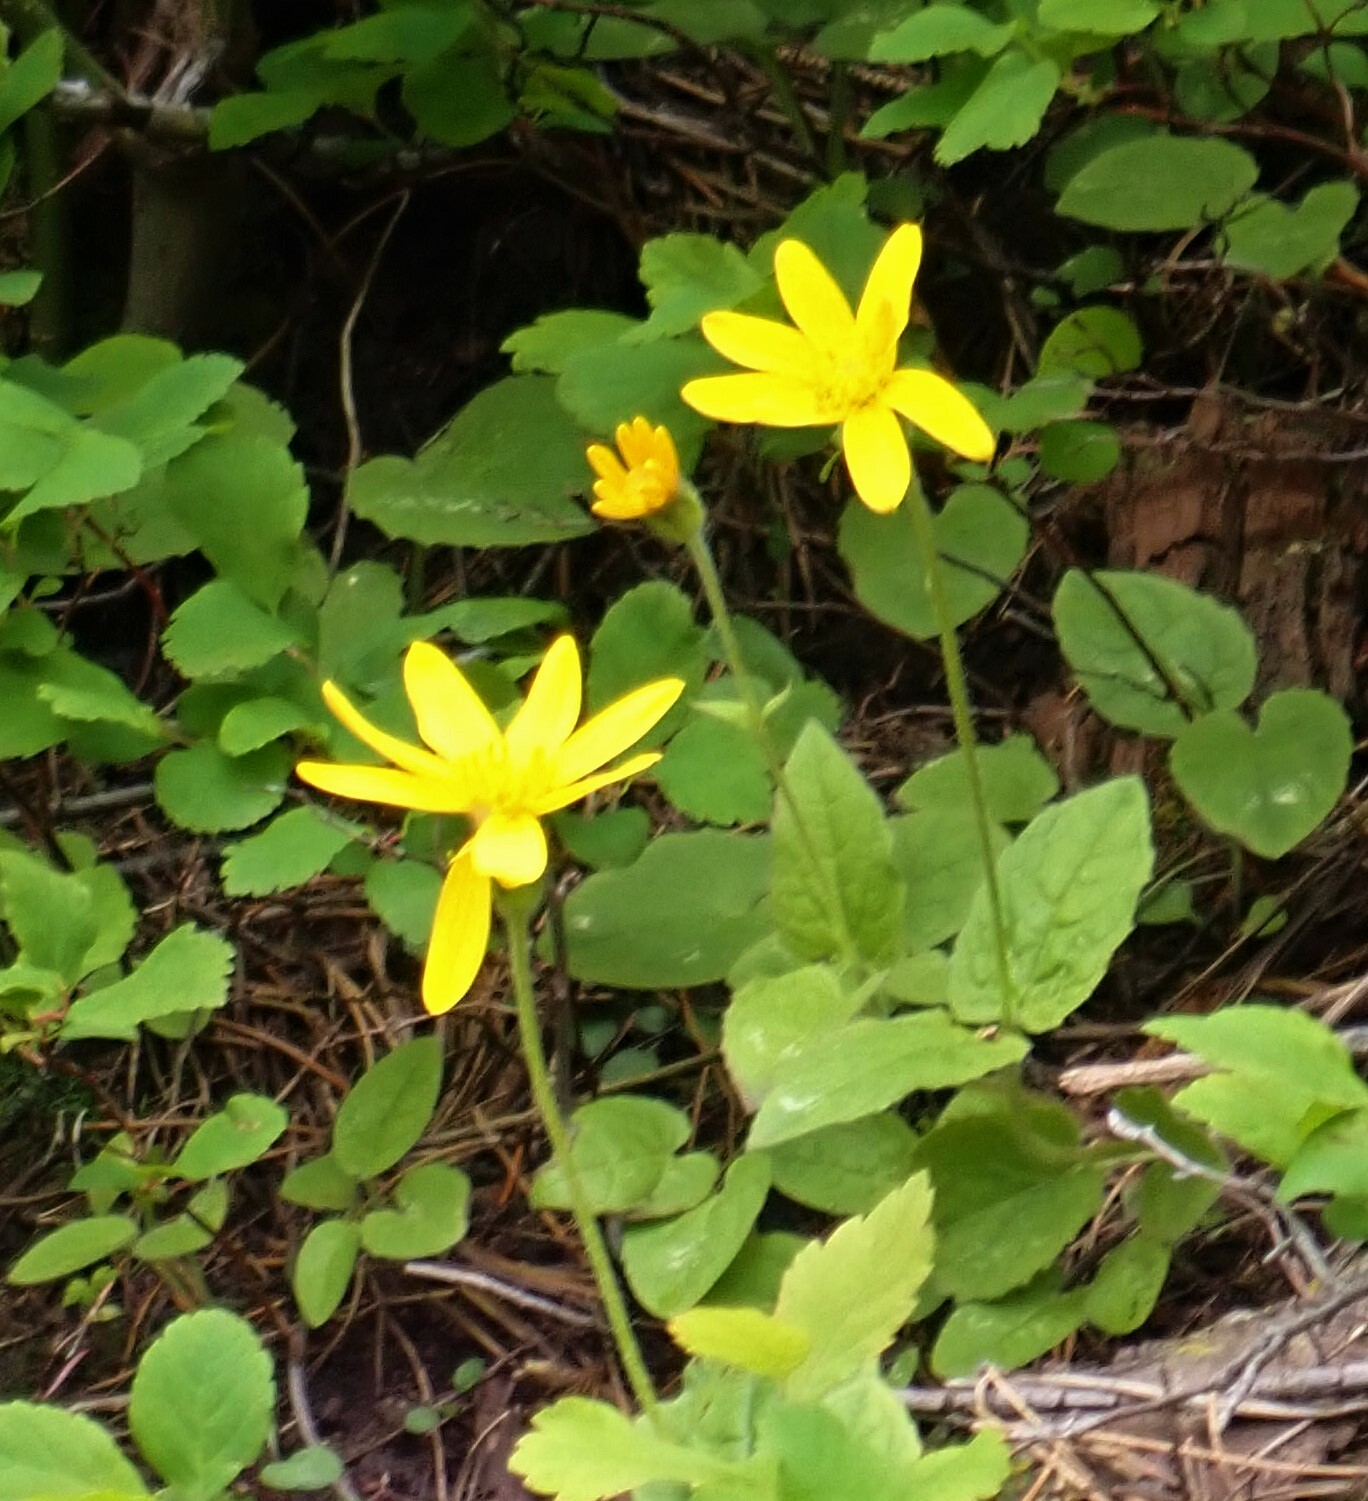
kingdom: Plantae
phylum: Tracheophyta
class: Magnoliopsida
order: Asterales
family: Asteraceae
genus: Arnica
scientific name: Arnica cordifolia
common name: Heart-leaf arnica
